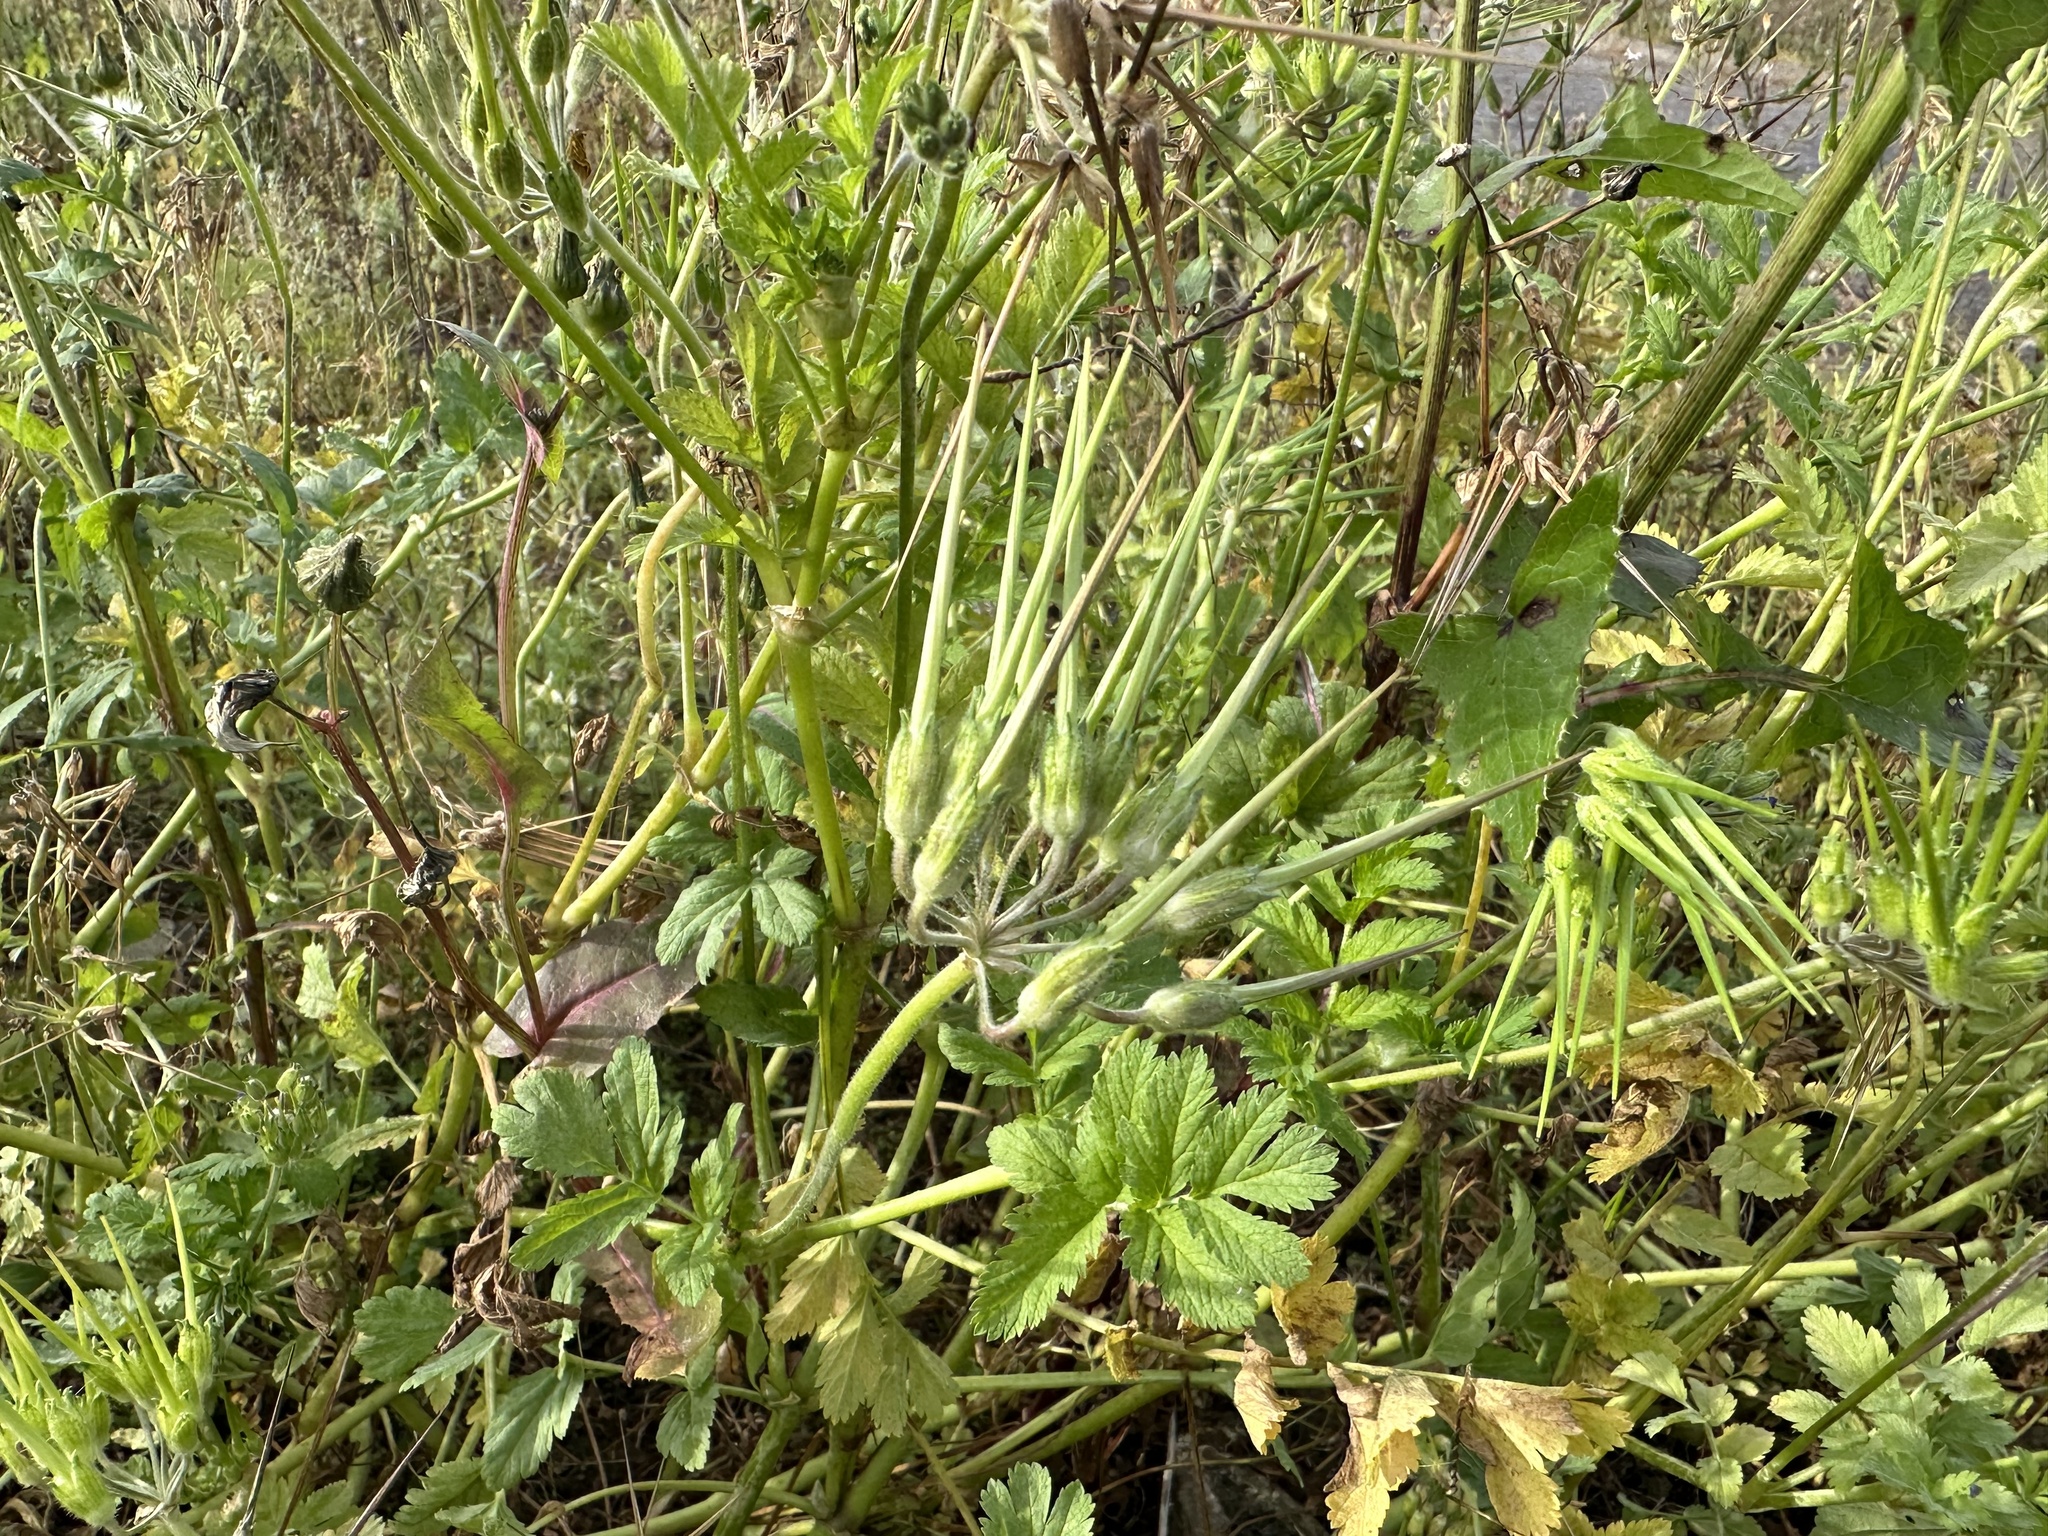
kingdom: Plantae
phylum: Tracheophyta
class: Magnoliopsida
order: Geraniales
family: Geraniaceae
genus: Erodium
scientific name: Erodium moschatum
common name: Musk stork's-bill
